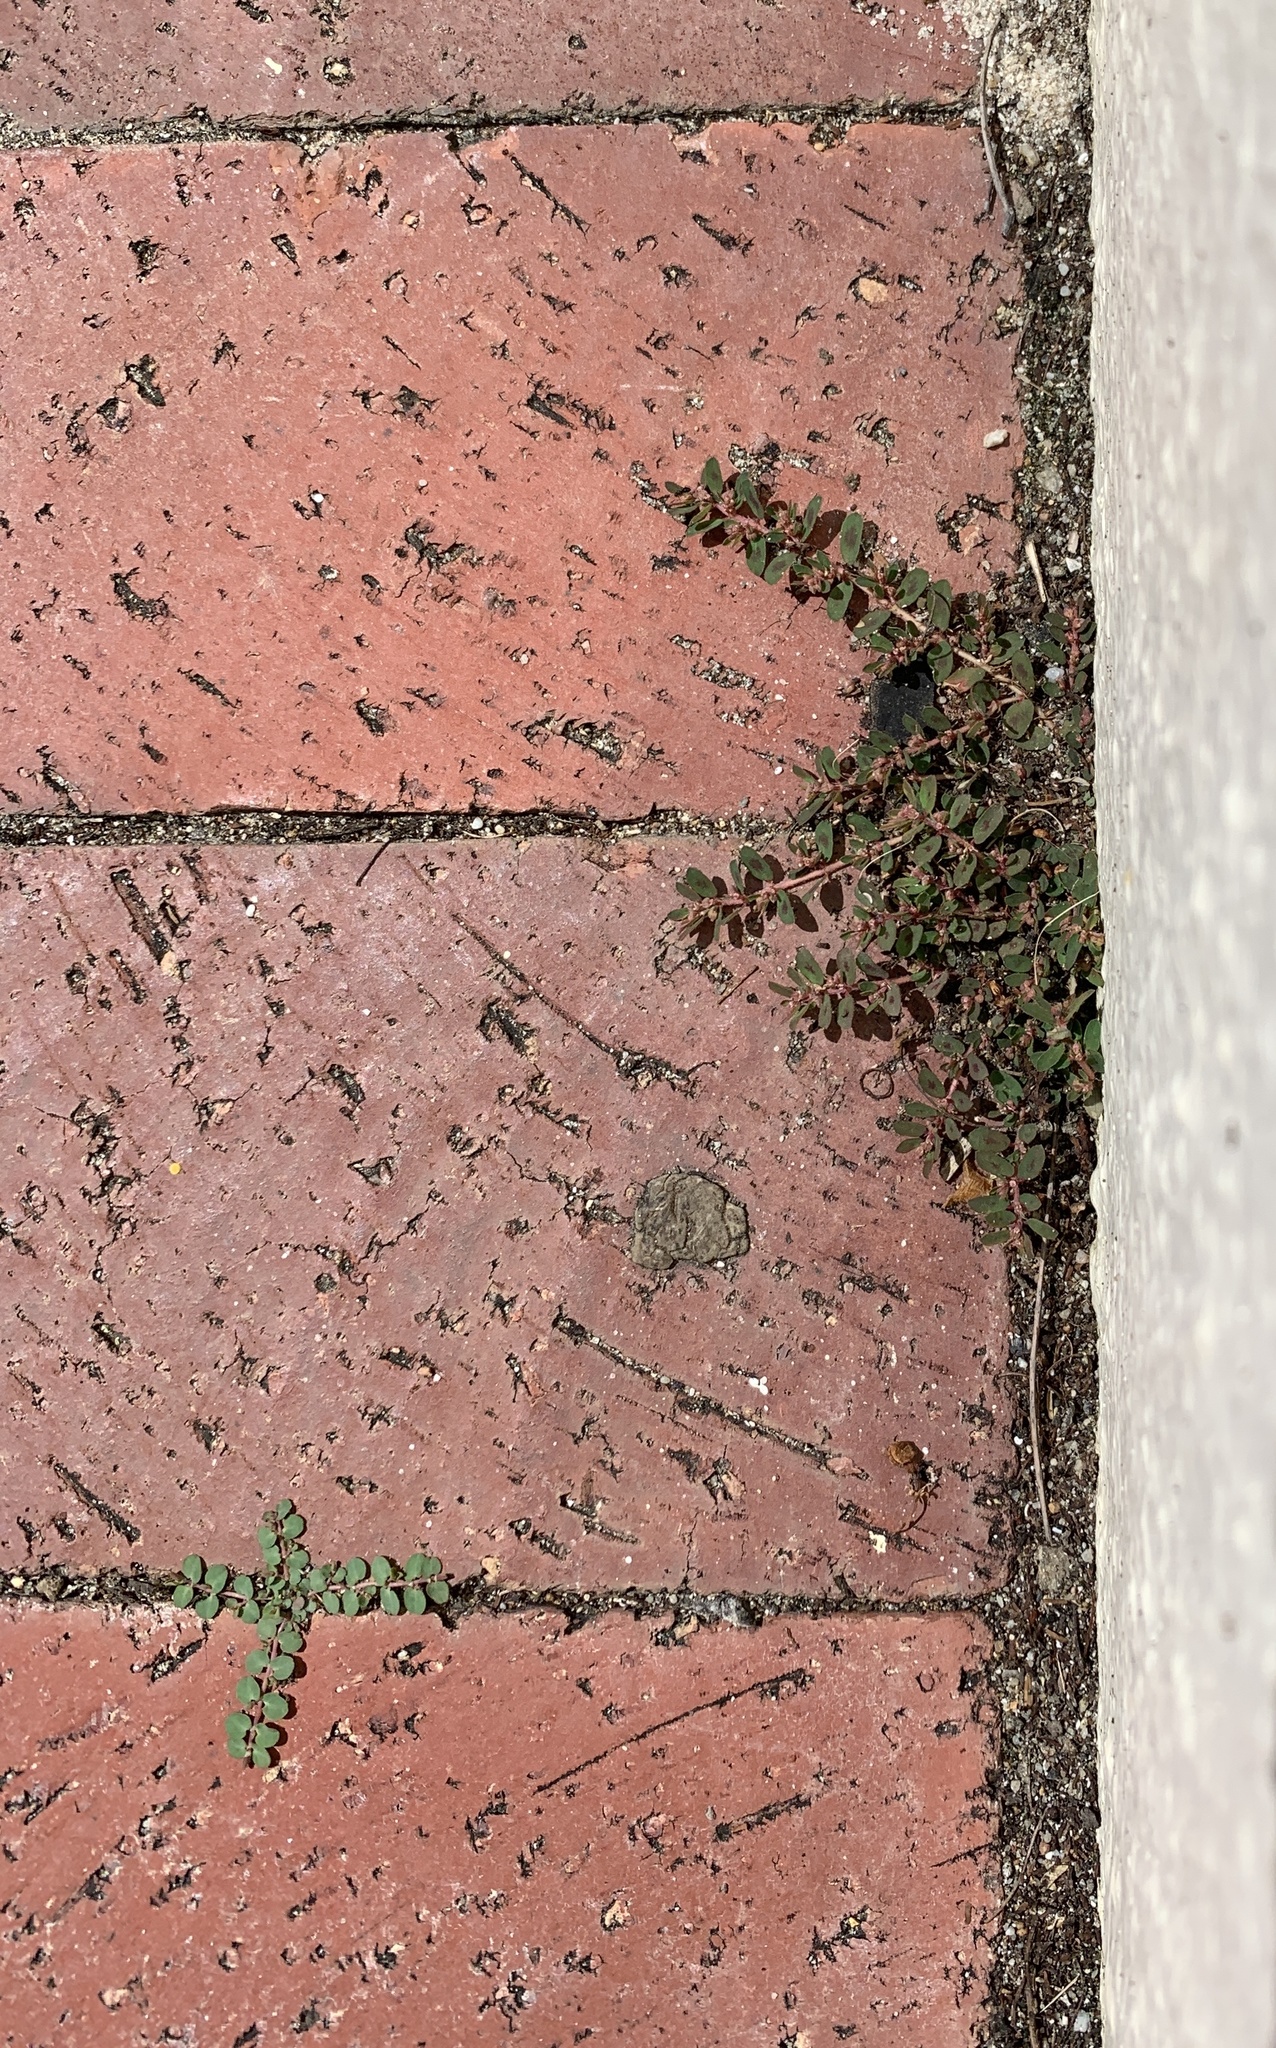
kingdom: Plantae
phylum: Tracheophyta
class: Magnoliopsida
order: Malpighiales
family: Euphorbiaceae
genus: Euphorbia
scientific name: Euphorbia maculata
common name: Spotted spurge
